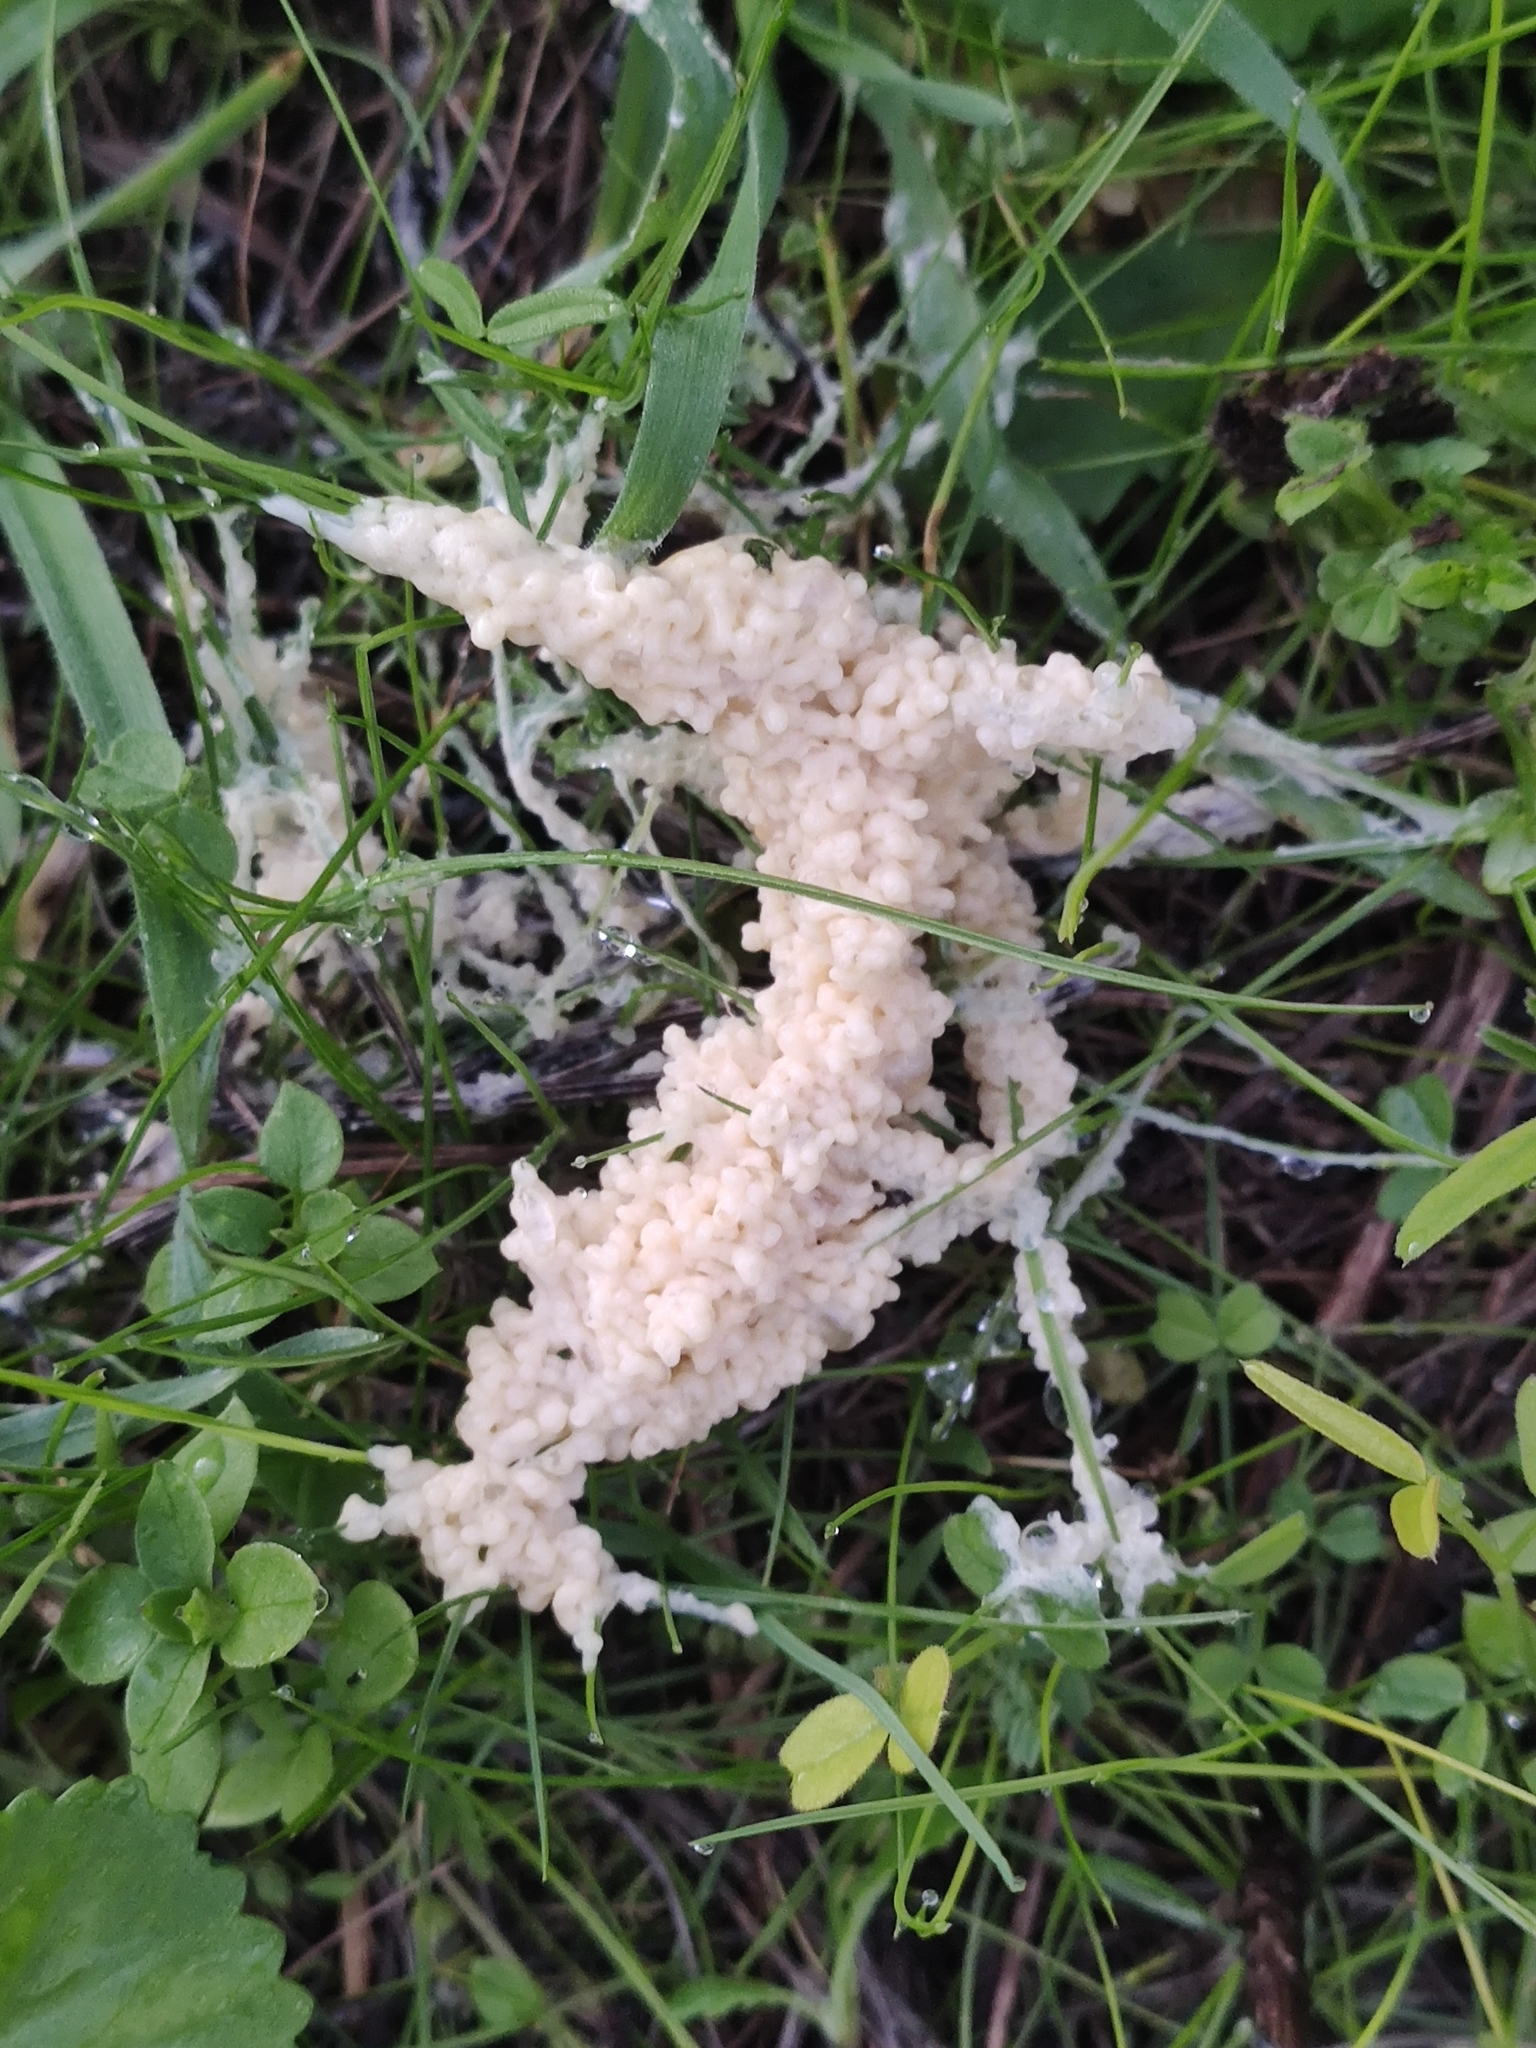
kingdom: Protozoa
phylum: Mycetozoa
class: Myxomycetes
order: Physarales
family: Physaraceae
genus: Didymium
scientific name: Didymium
